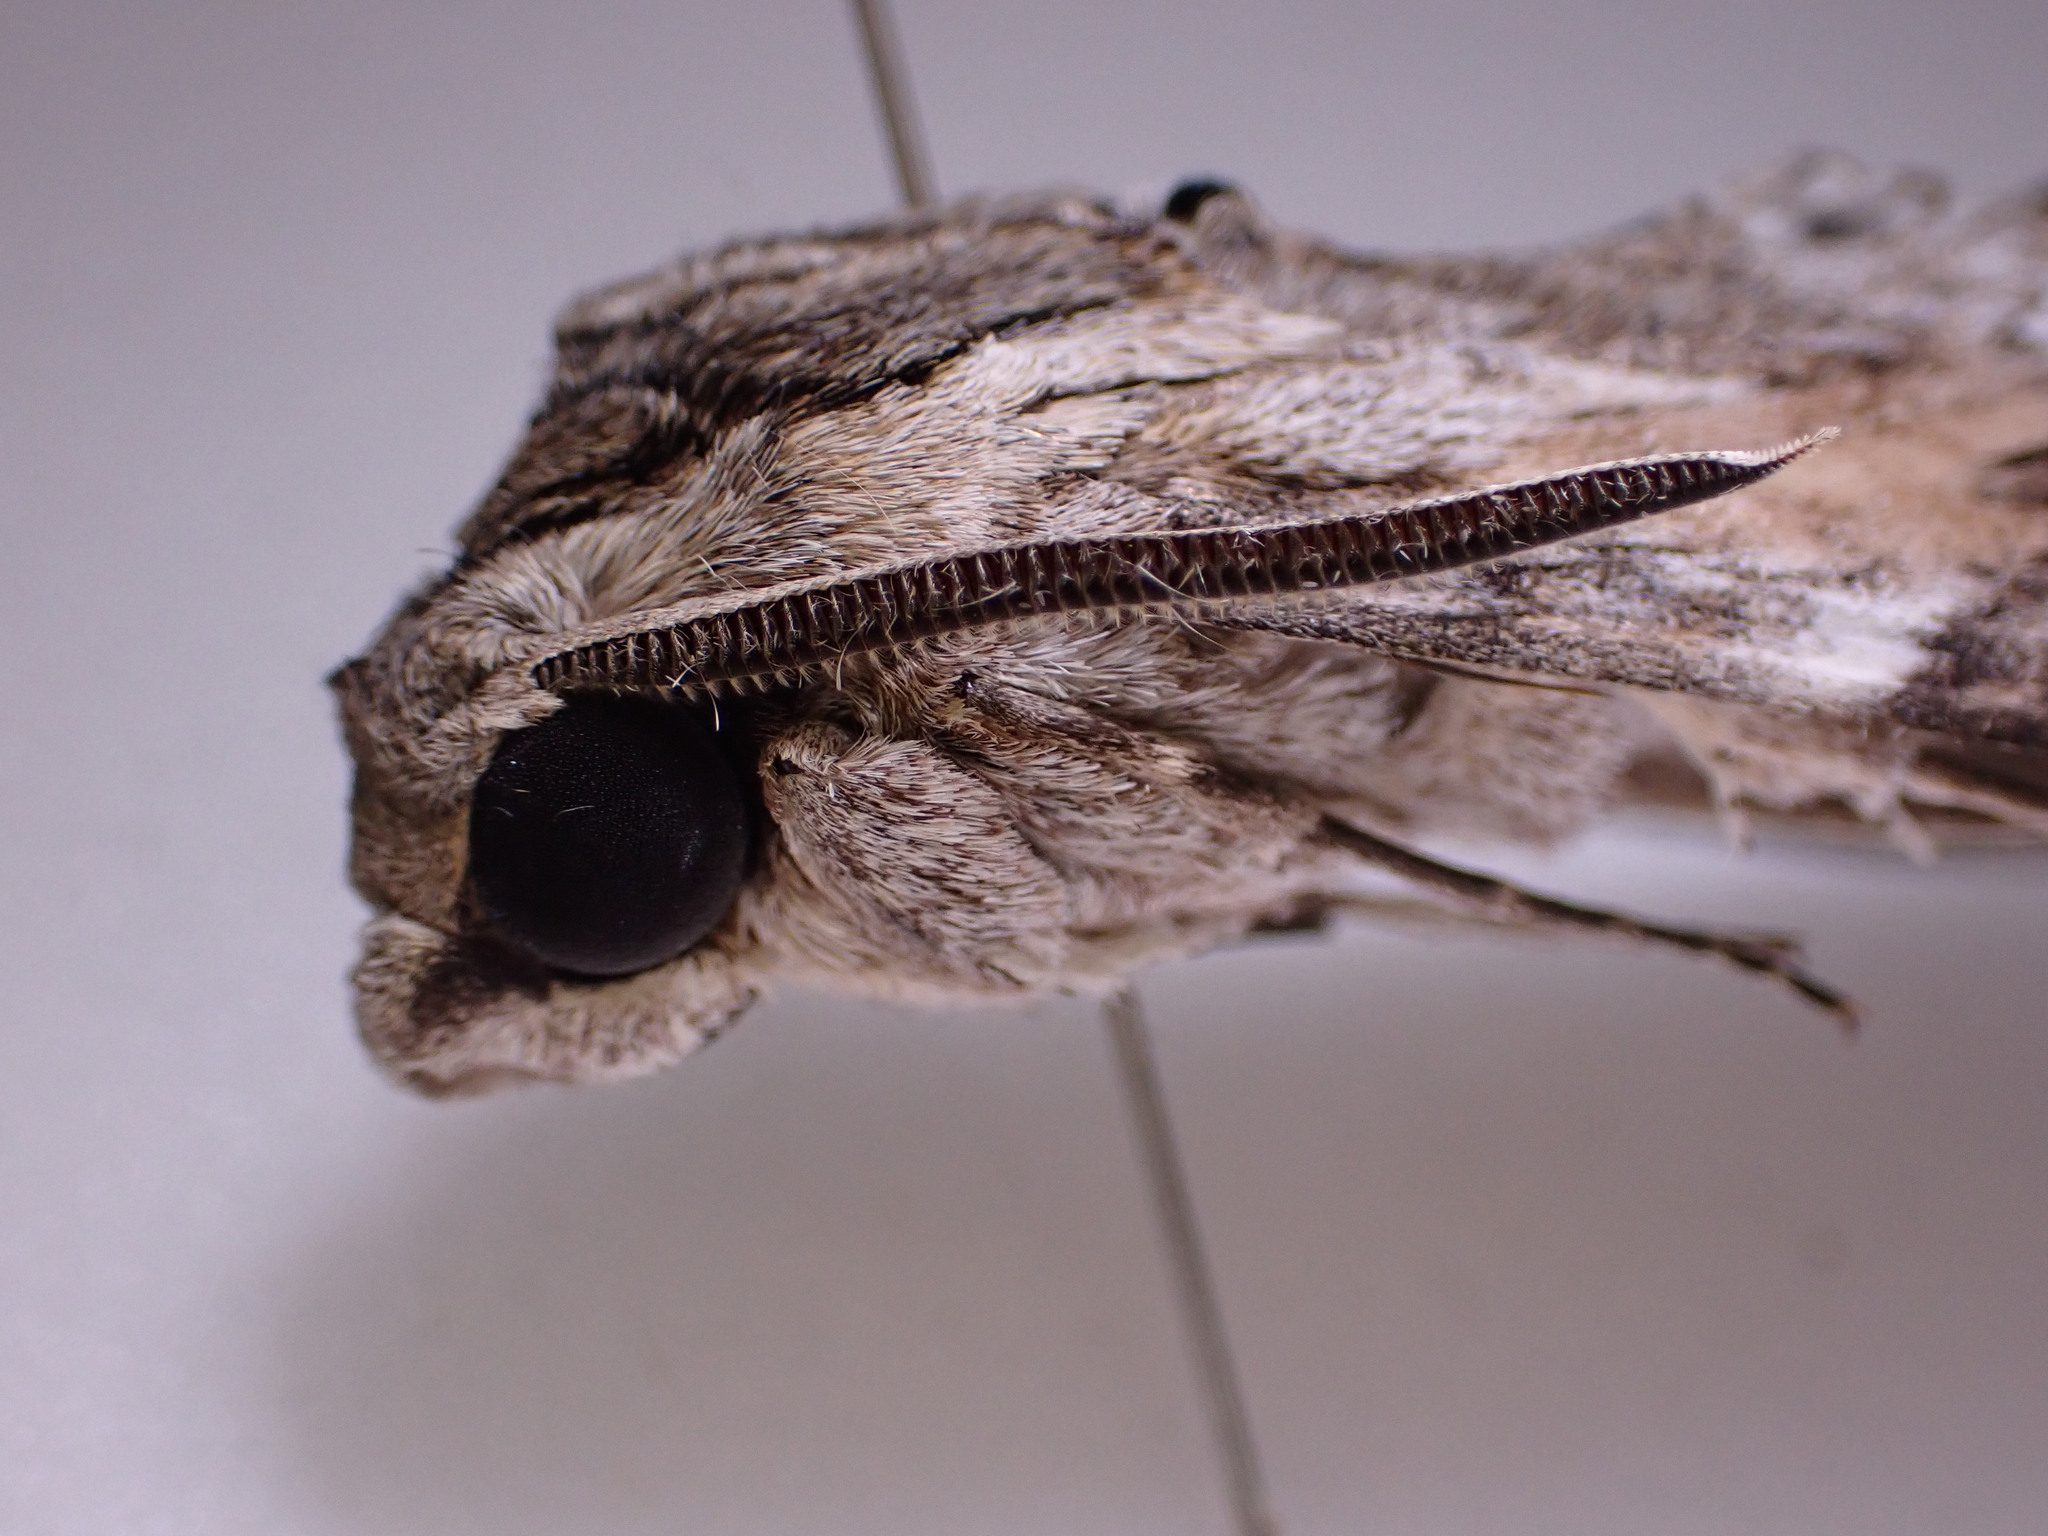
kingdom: Animalia
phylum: Arthropoda
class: Insecta
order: Lepidoptera
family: Sphingidae
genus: Agrius
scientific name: Agrius convolvuli
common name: Convolvulus hawkmoth
